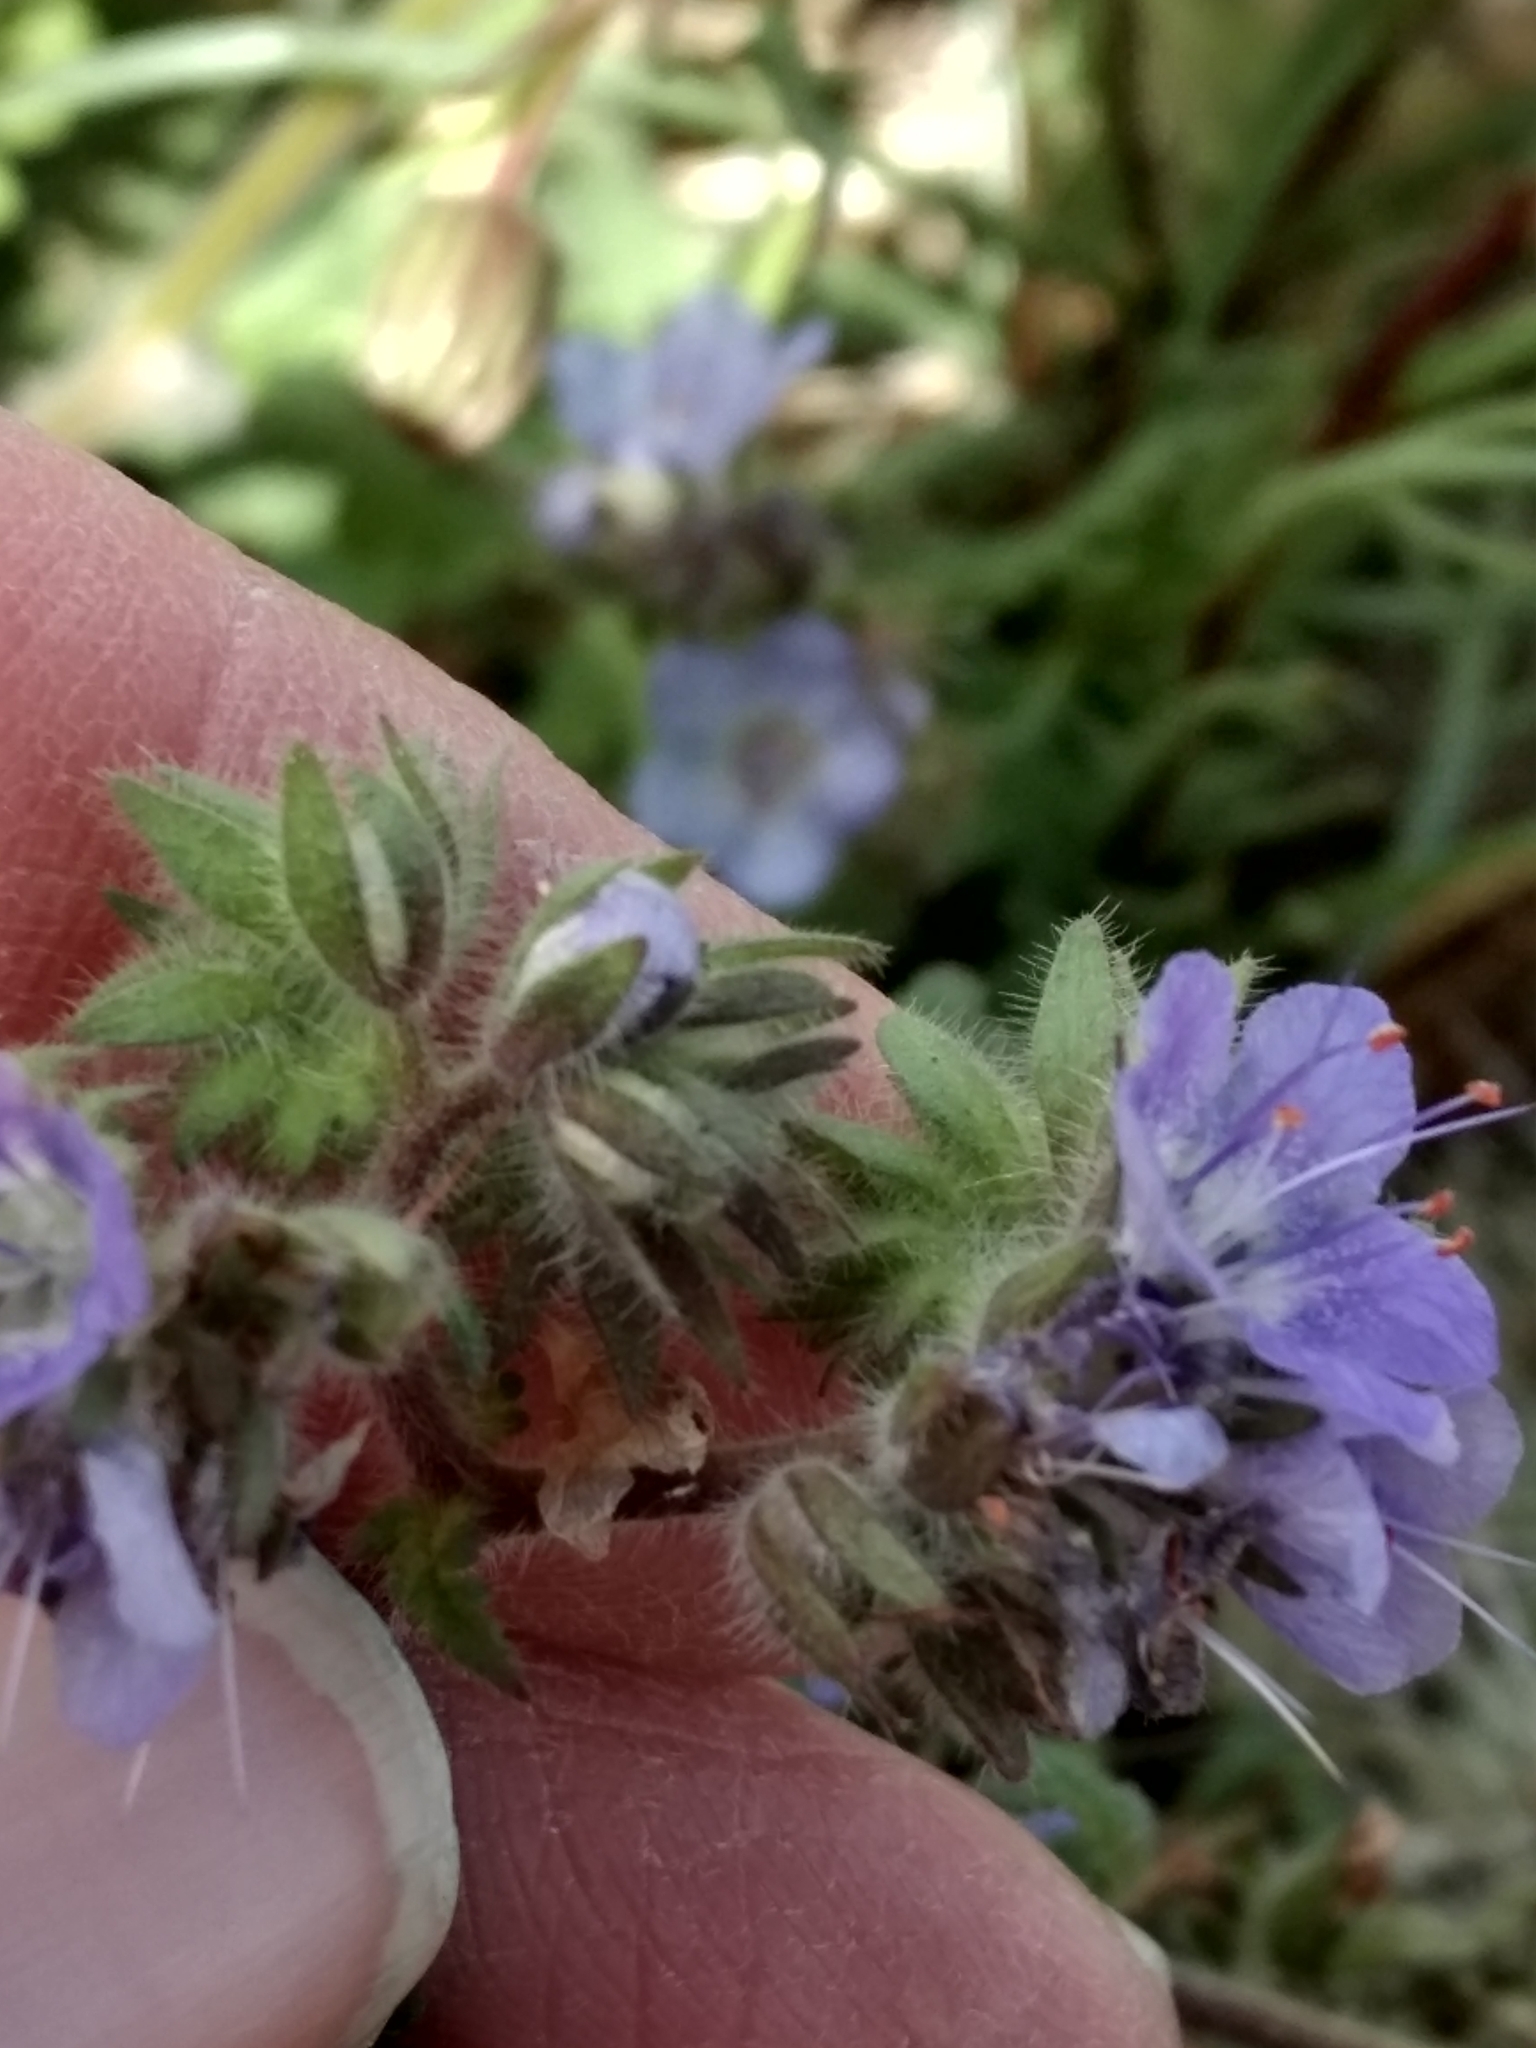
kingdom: Plantae
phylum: Tracheophyta
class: Magnoliopsida
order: Boraginales
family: Hydrophyllaceae
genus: Phacelia
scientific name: Phacelia distans
